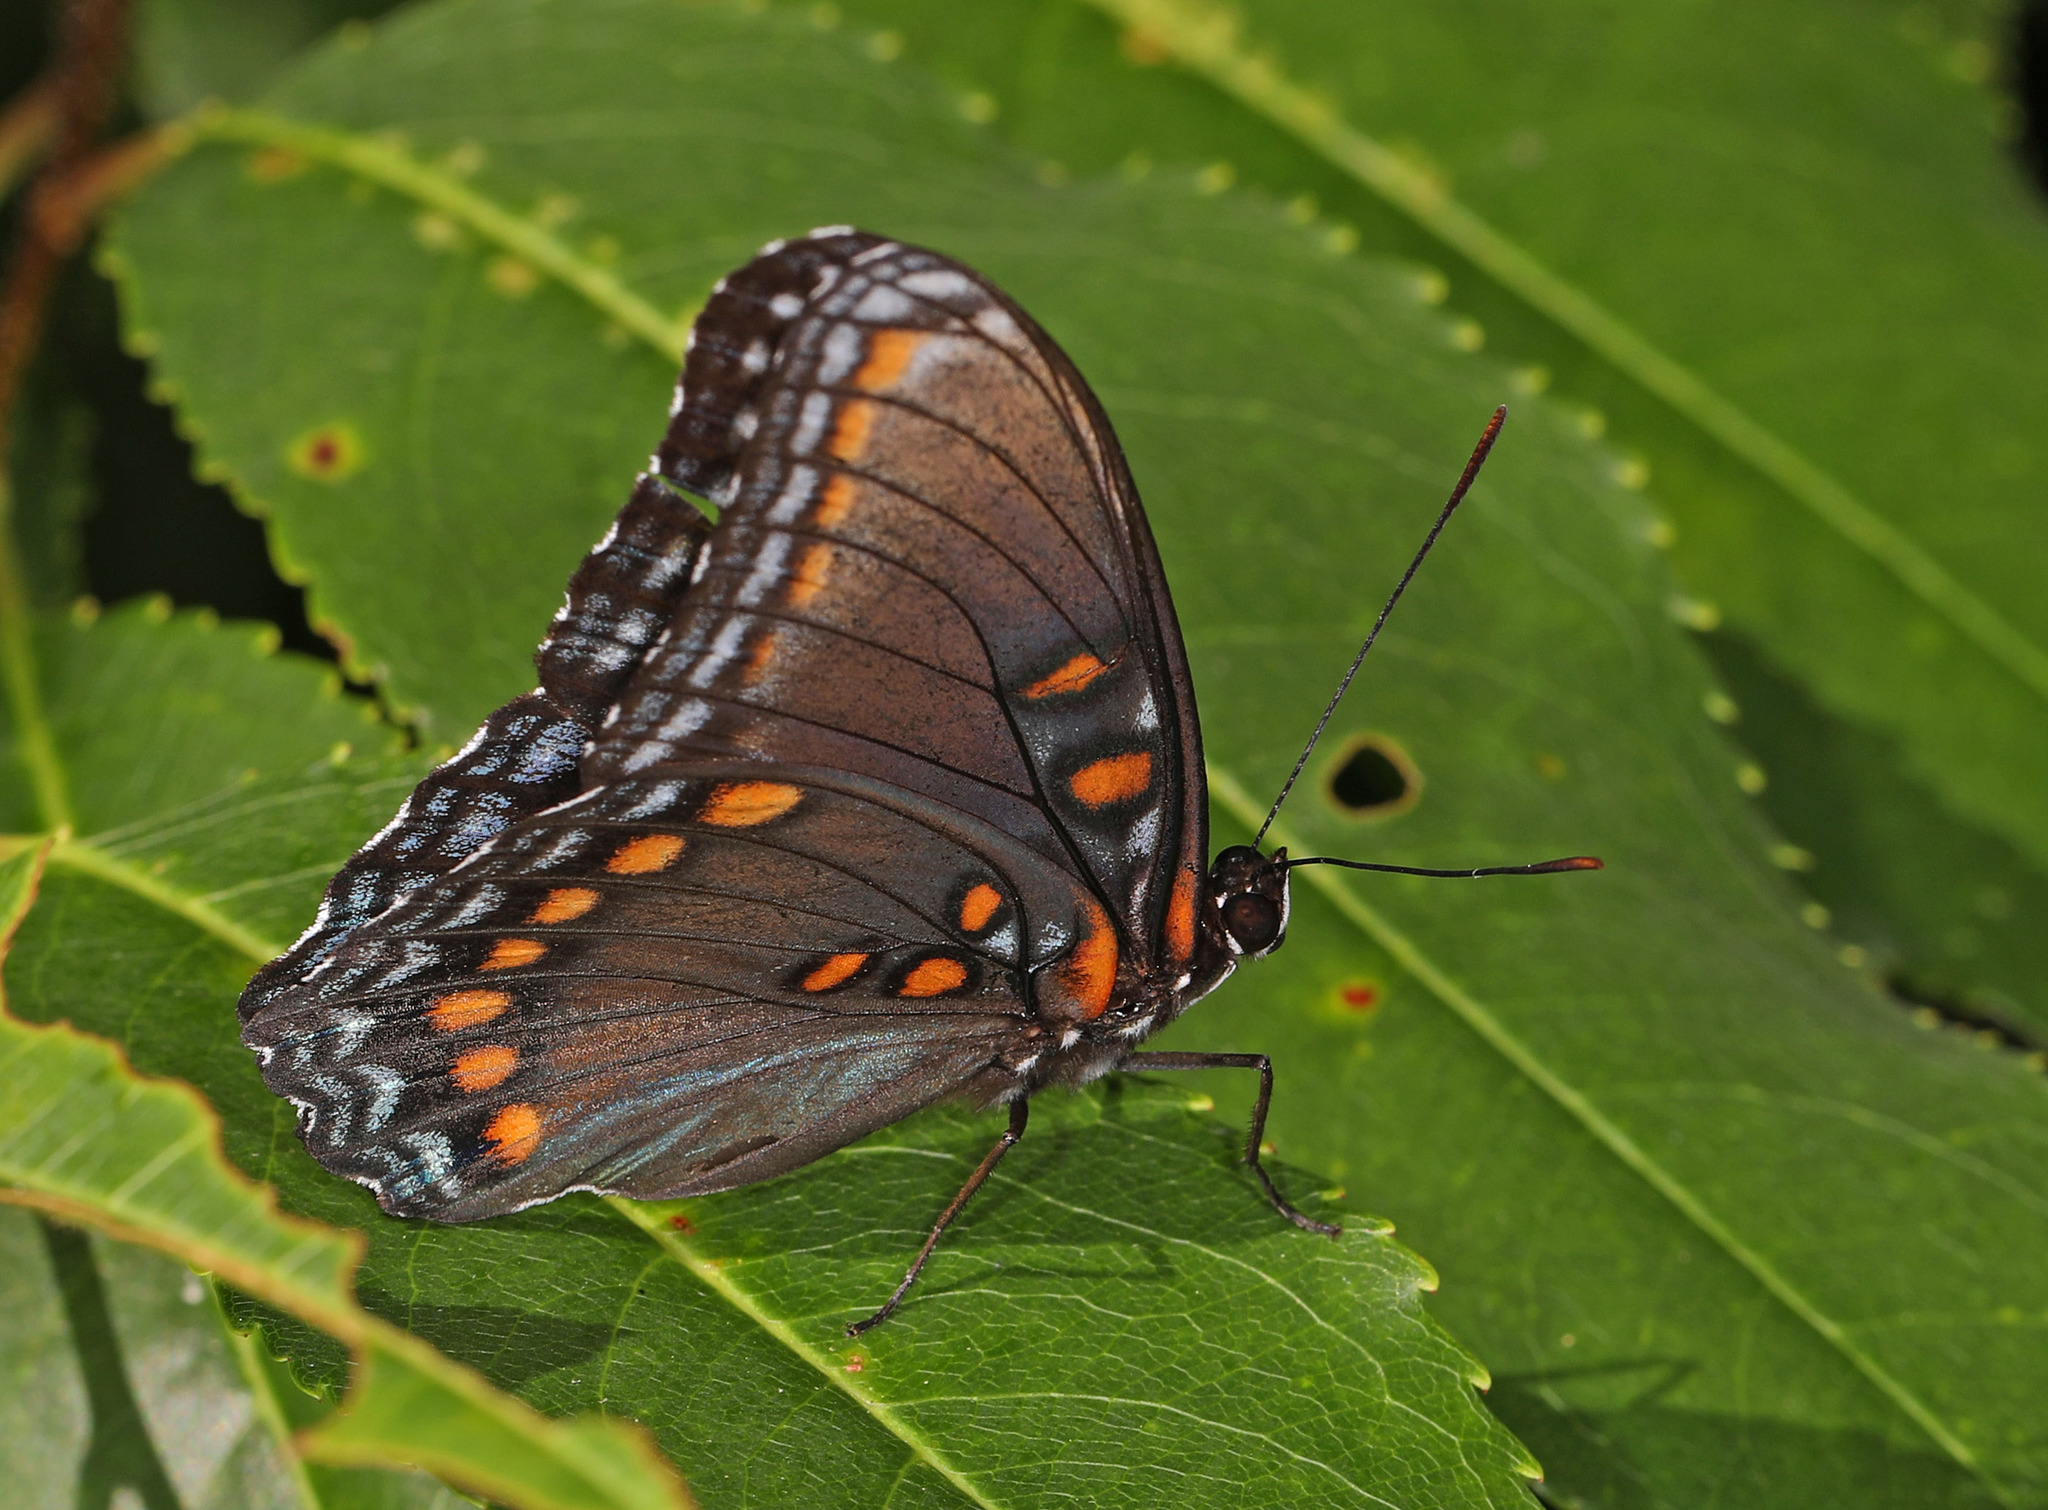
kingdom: Animalia
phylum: Arthropoda
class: Insecta
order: Lepidoptera
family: Nymphalidae
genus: Limenitis
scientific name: Limenitis astyanax
